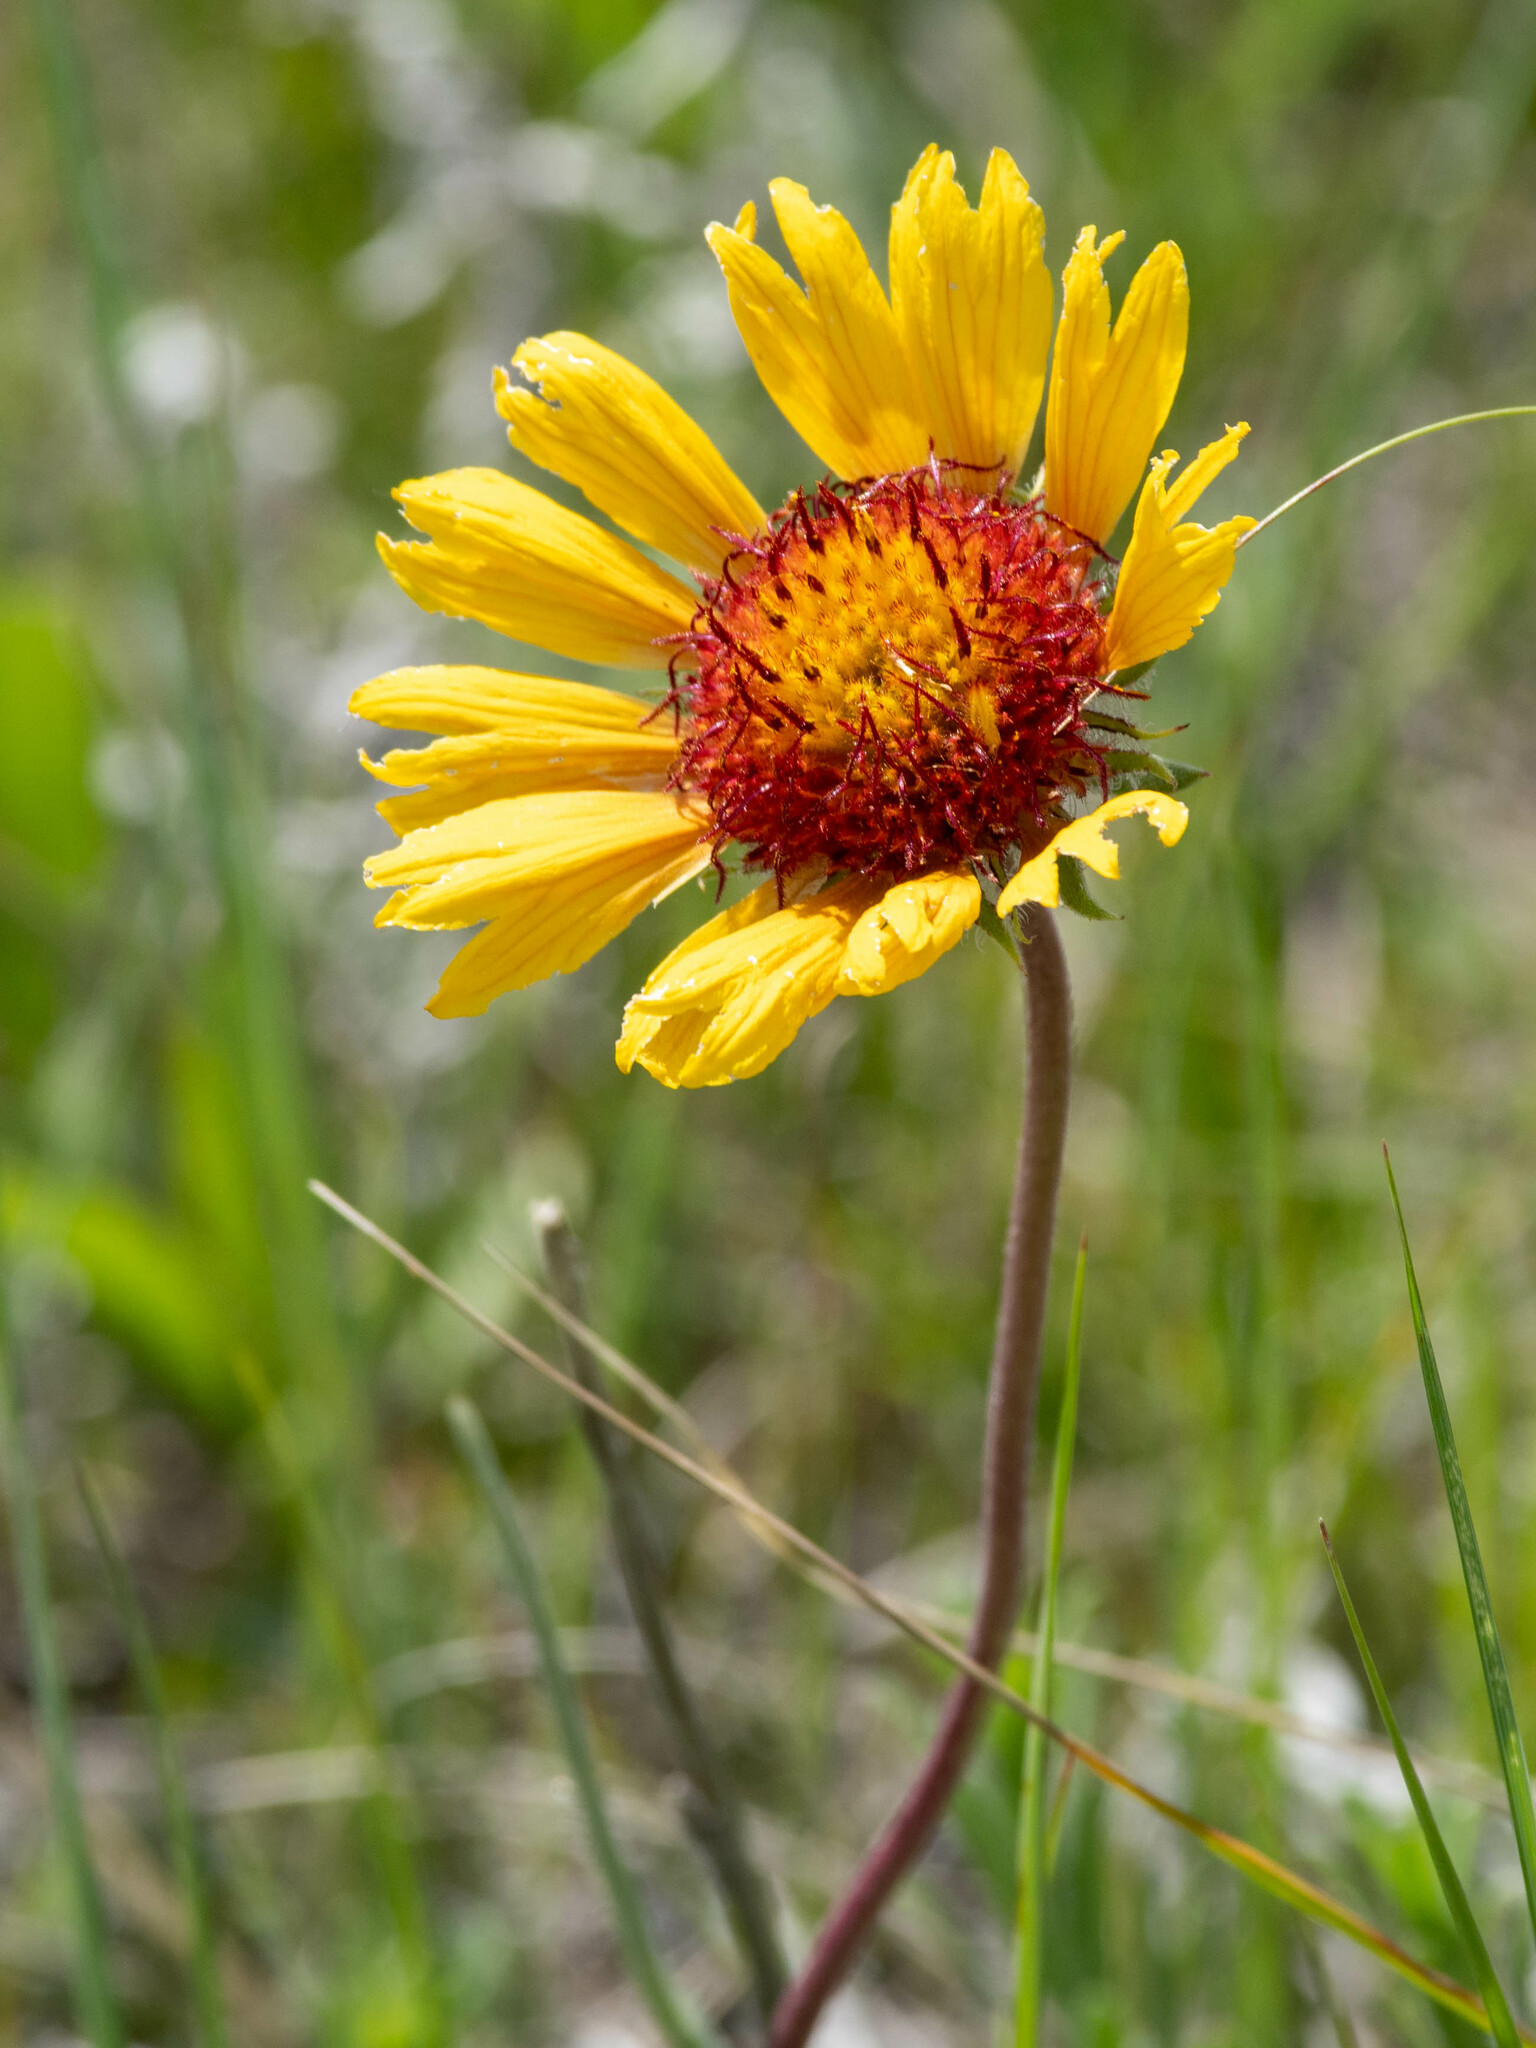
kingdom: Plantae
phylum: Tracheophyta
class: Magnoliopsida
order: Asterales
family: Asteraceae
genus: Gaillardia
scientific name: Gaillardia aristata
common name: Blanket-flower
